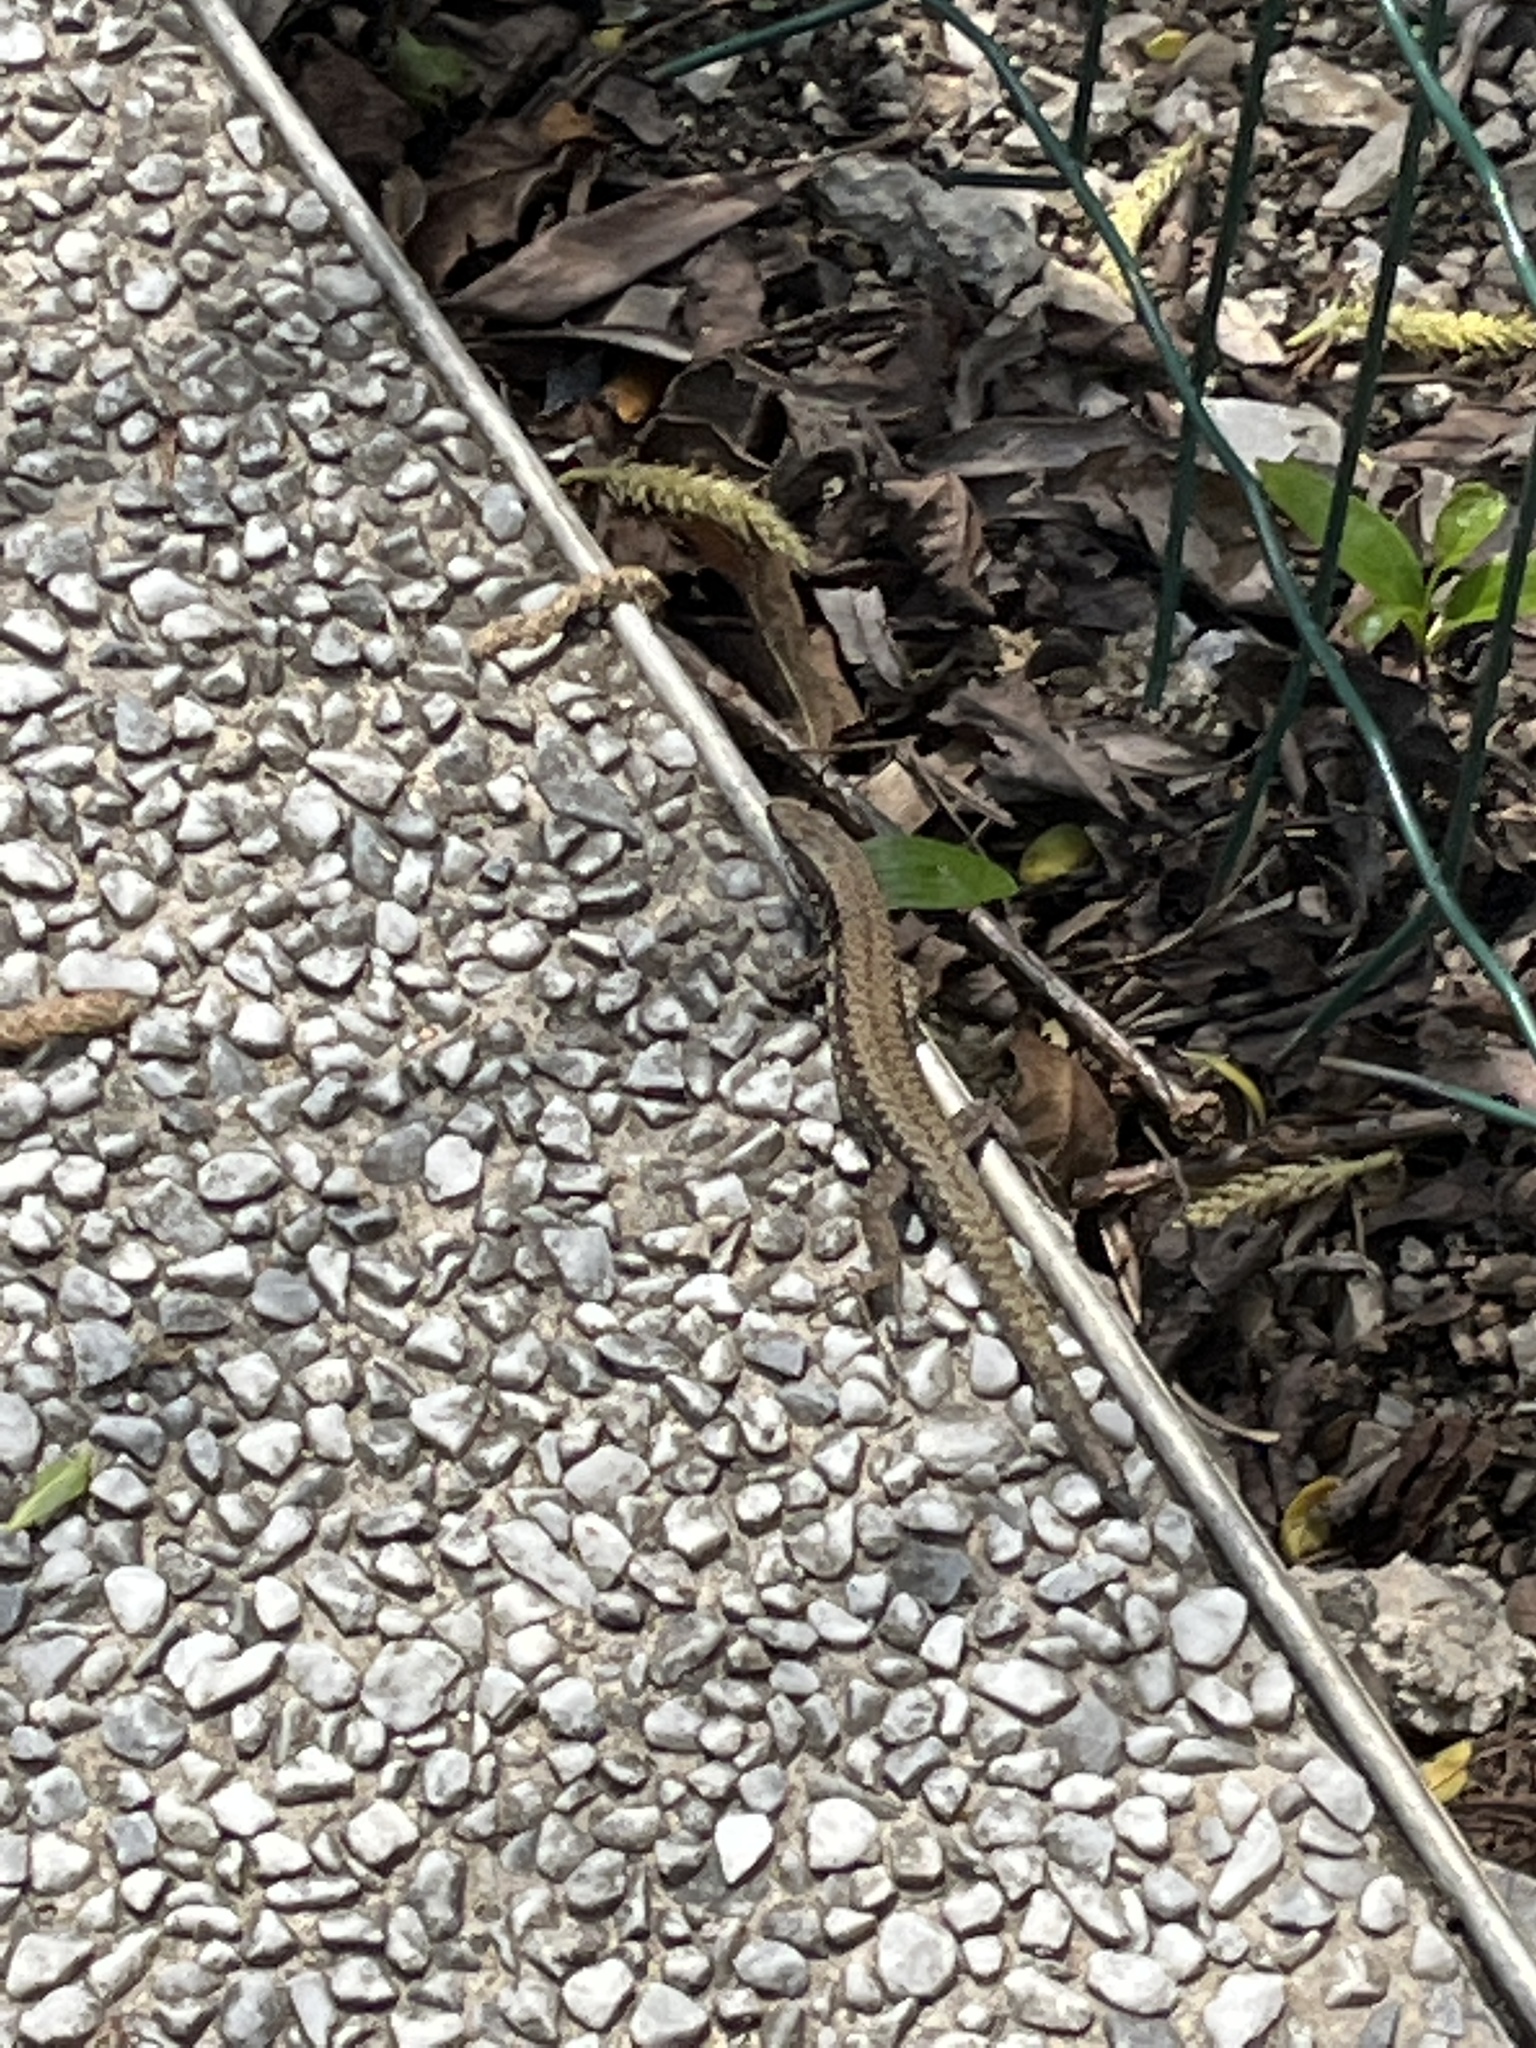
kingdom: Animalia
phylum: Chordata
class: Squamata
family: Lacertidae
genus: Podarcis
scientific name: Podarcis muralis
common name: Common wall lizard
